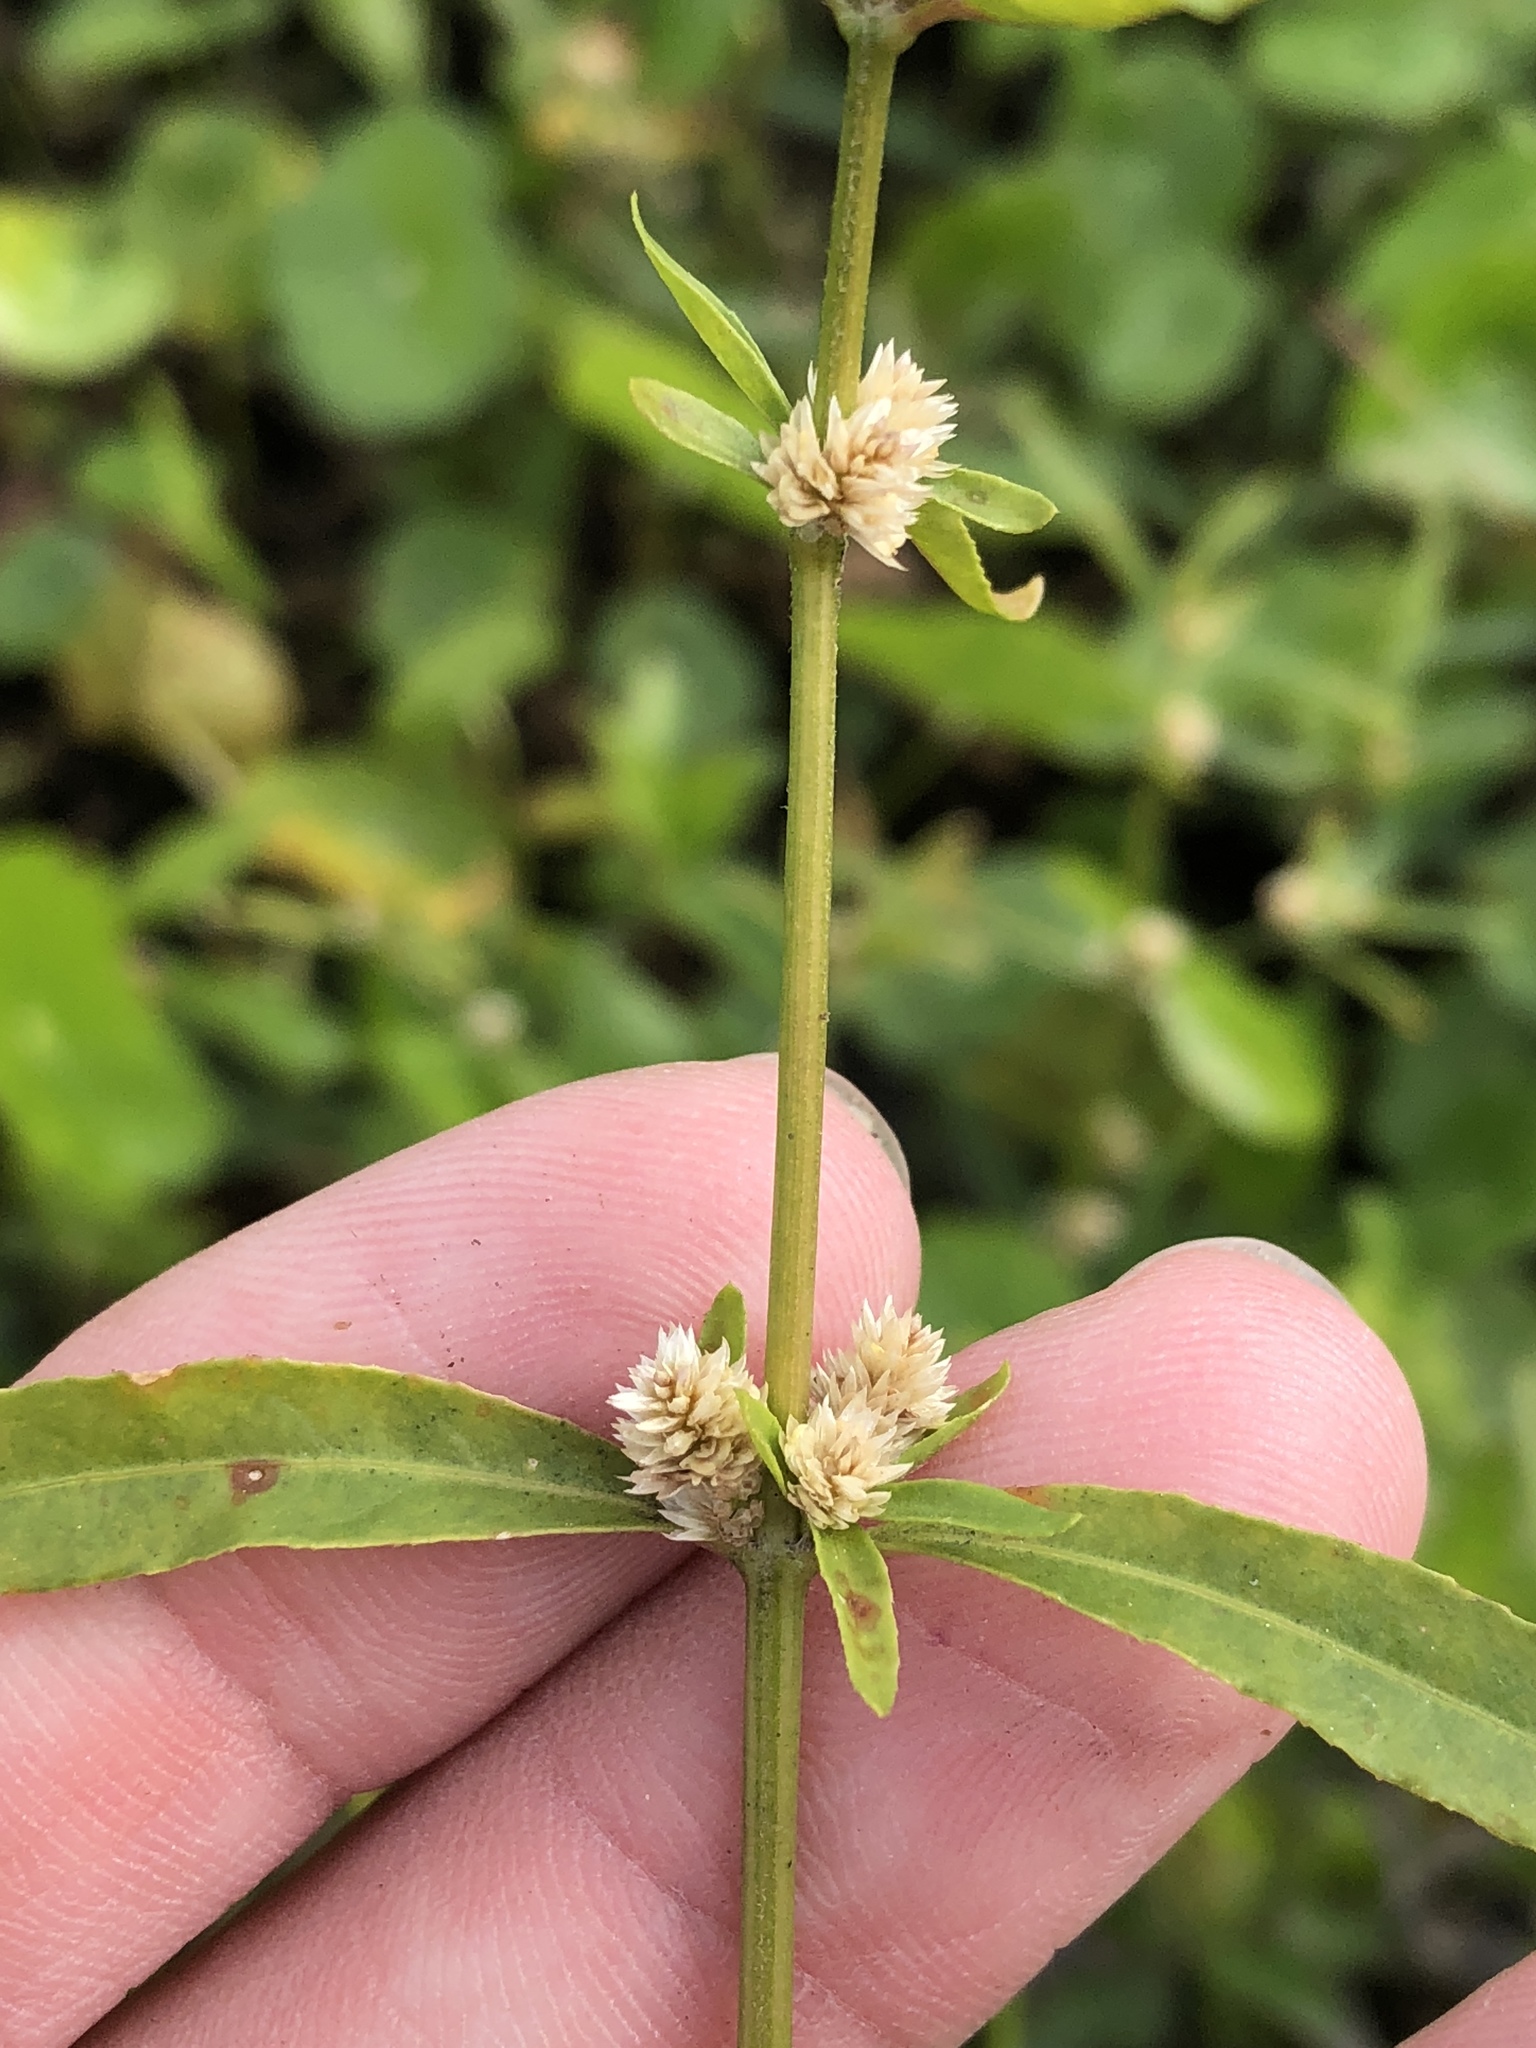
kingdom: Plantae
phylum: Tracheophyta
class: Magnoliopsida
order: Caryophyllales
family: Amaranthaceae
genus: Alternanthera
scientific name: Alternanthera sessilis
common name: Sessile joyweed
